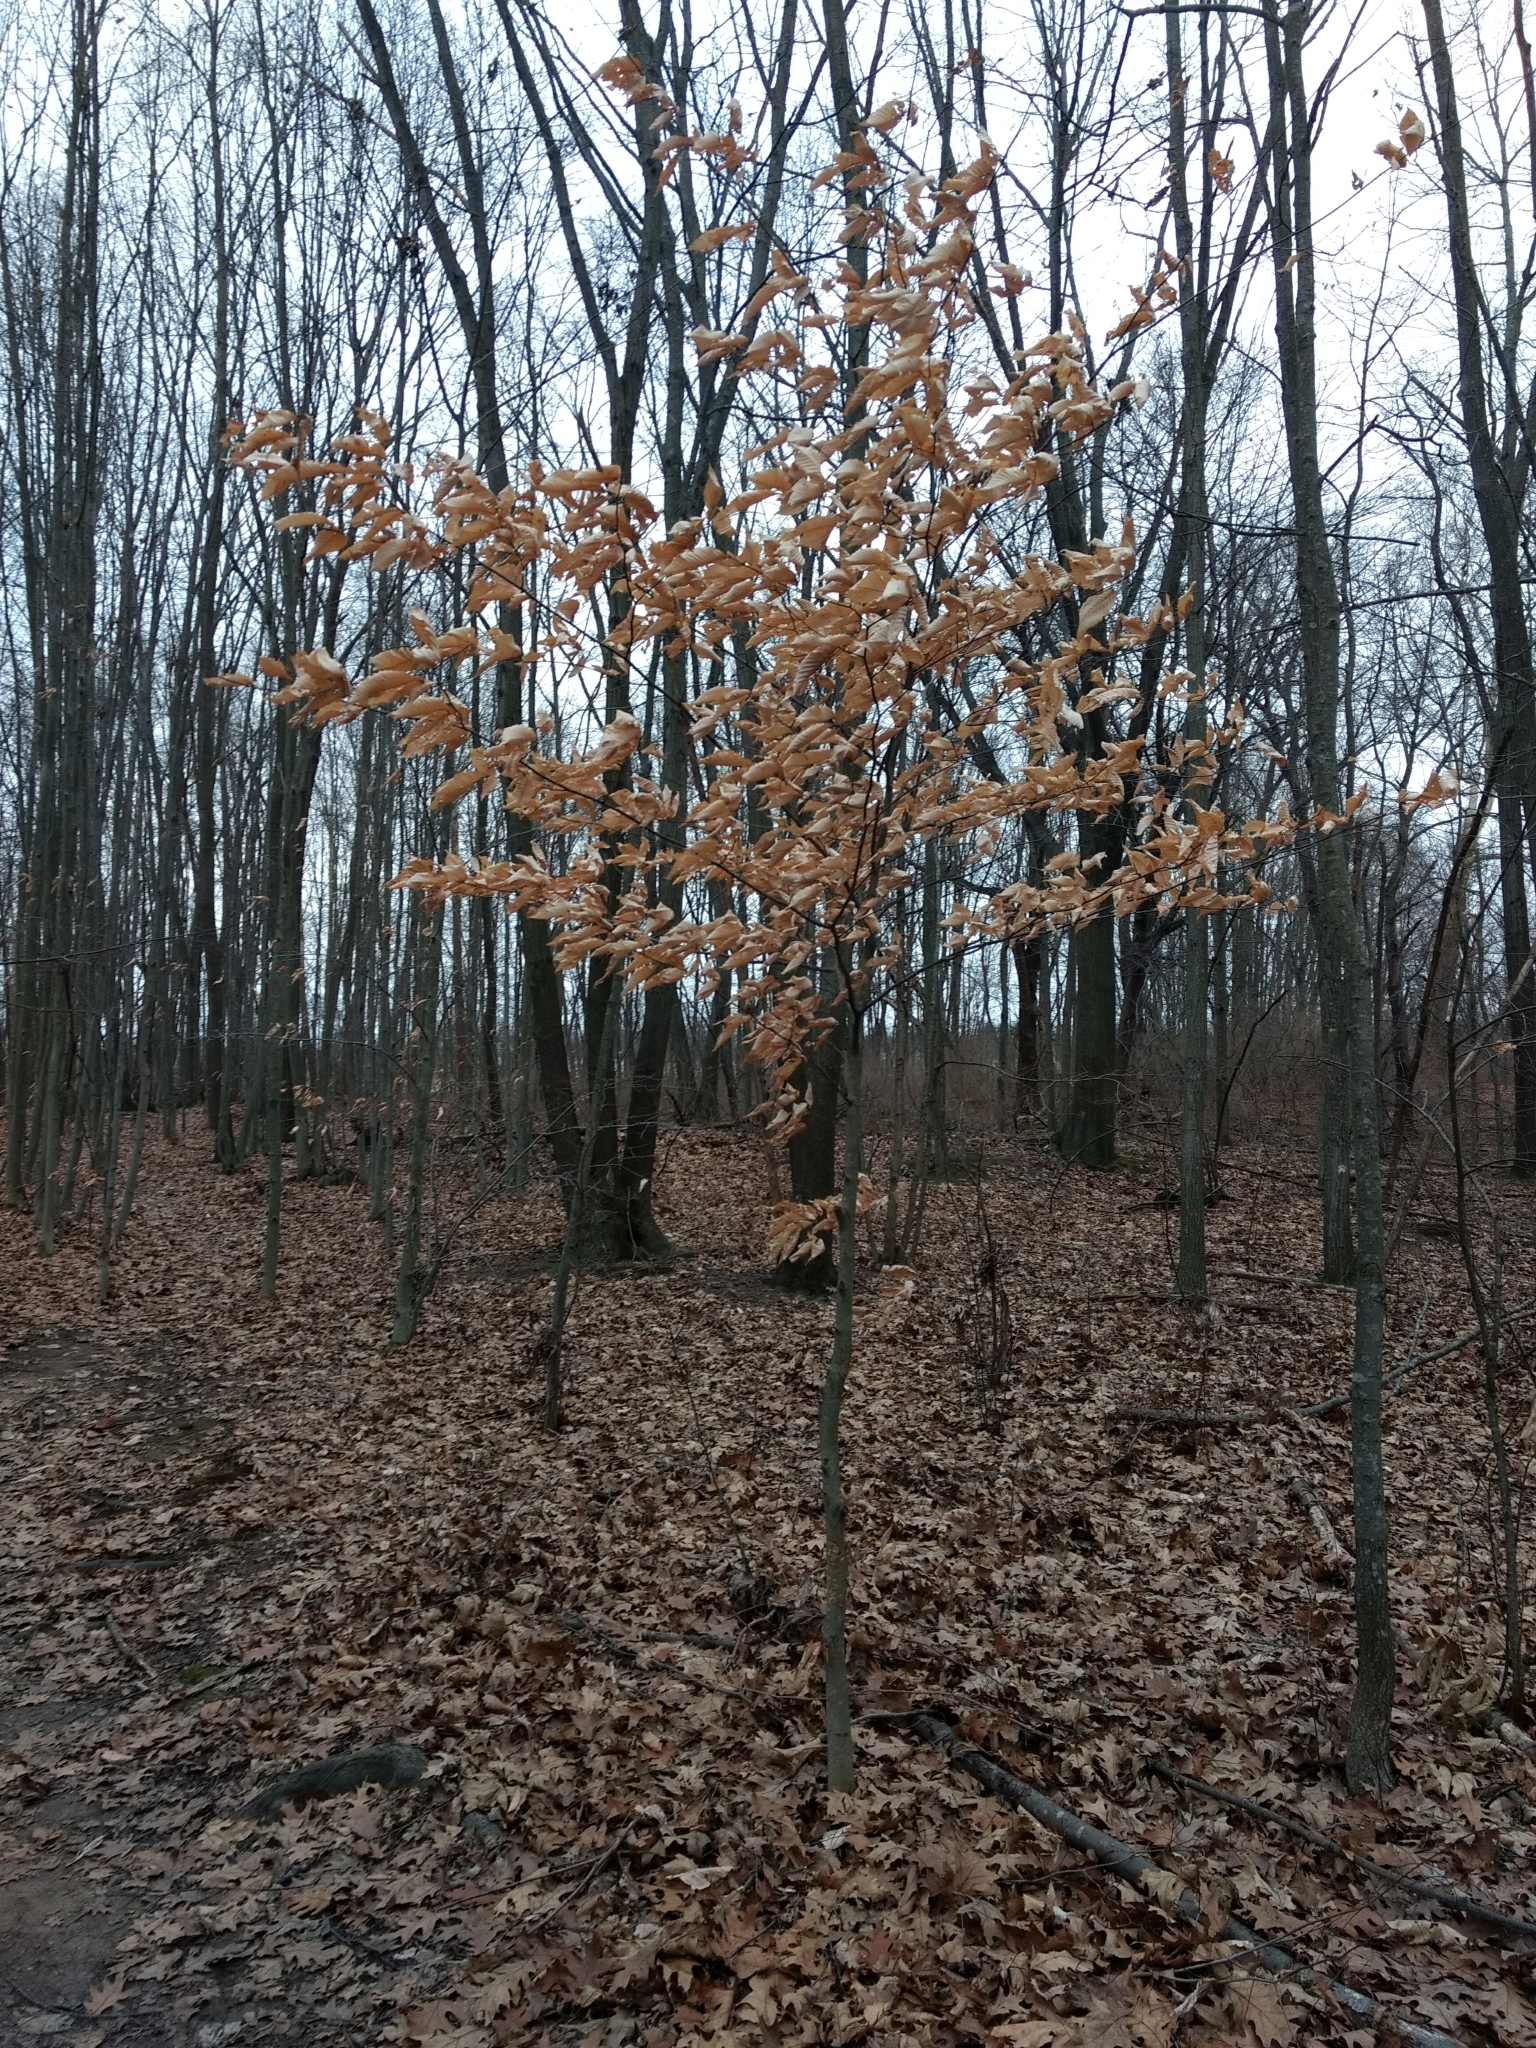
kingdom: Plantae
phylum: Tracheophyta
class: Magnoliopsida
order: Fagales
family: Fagaceae
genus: Fagus
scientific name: Fagus grandifolia
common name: American beech
